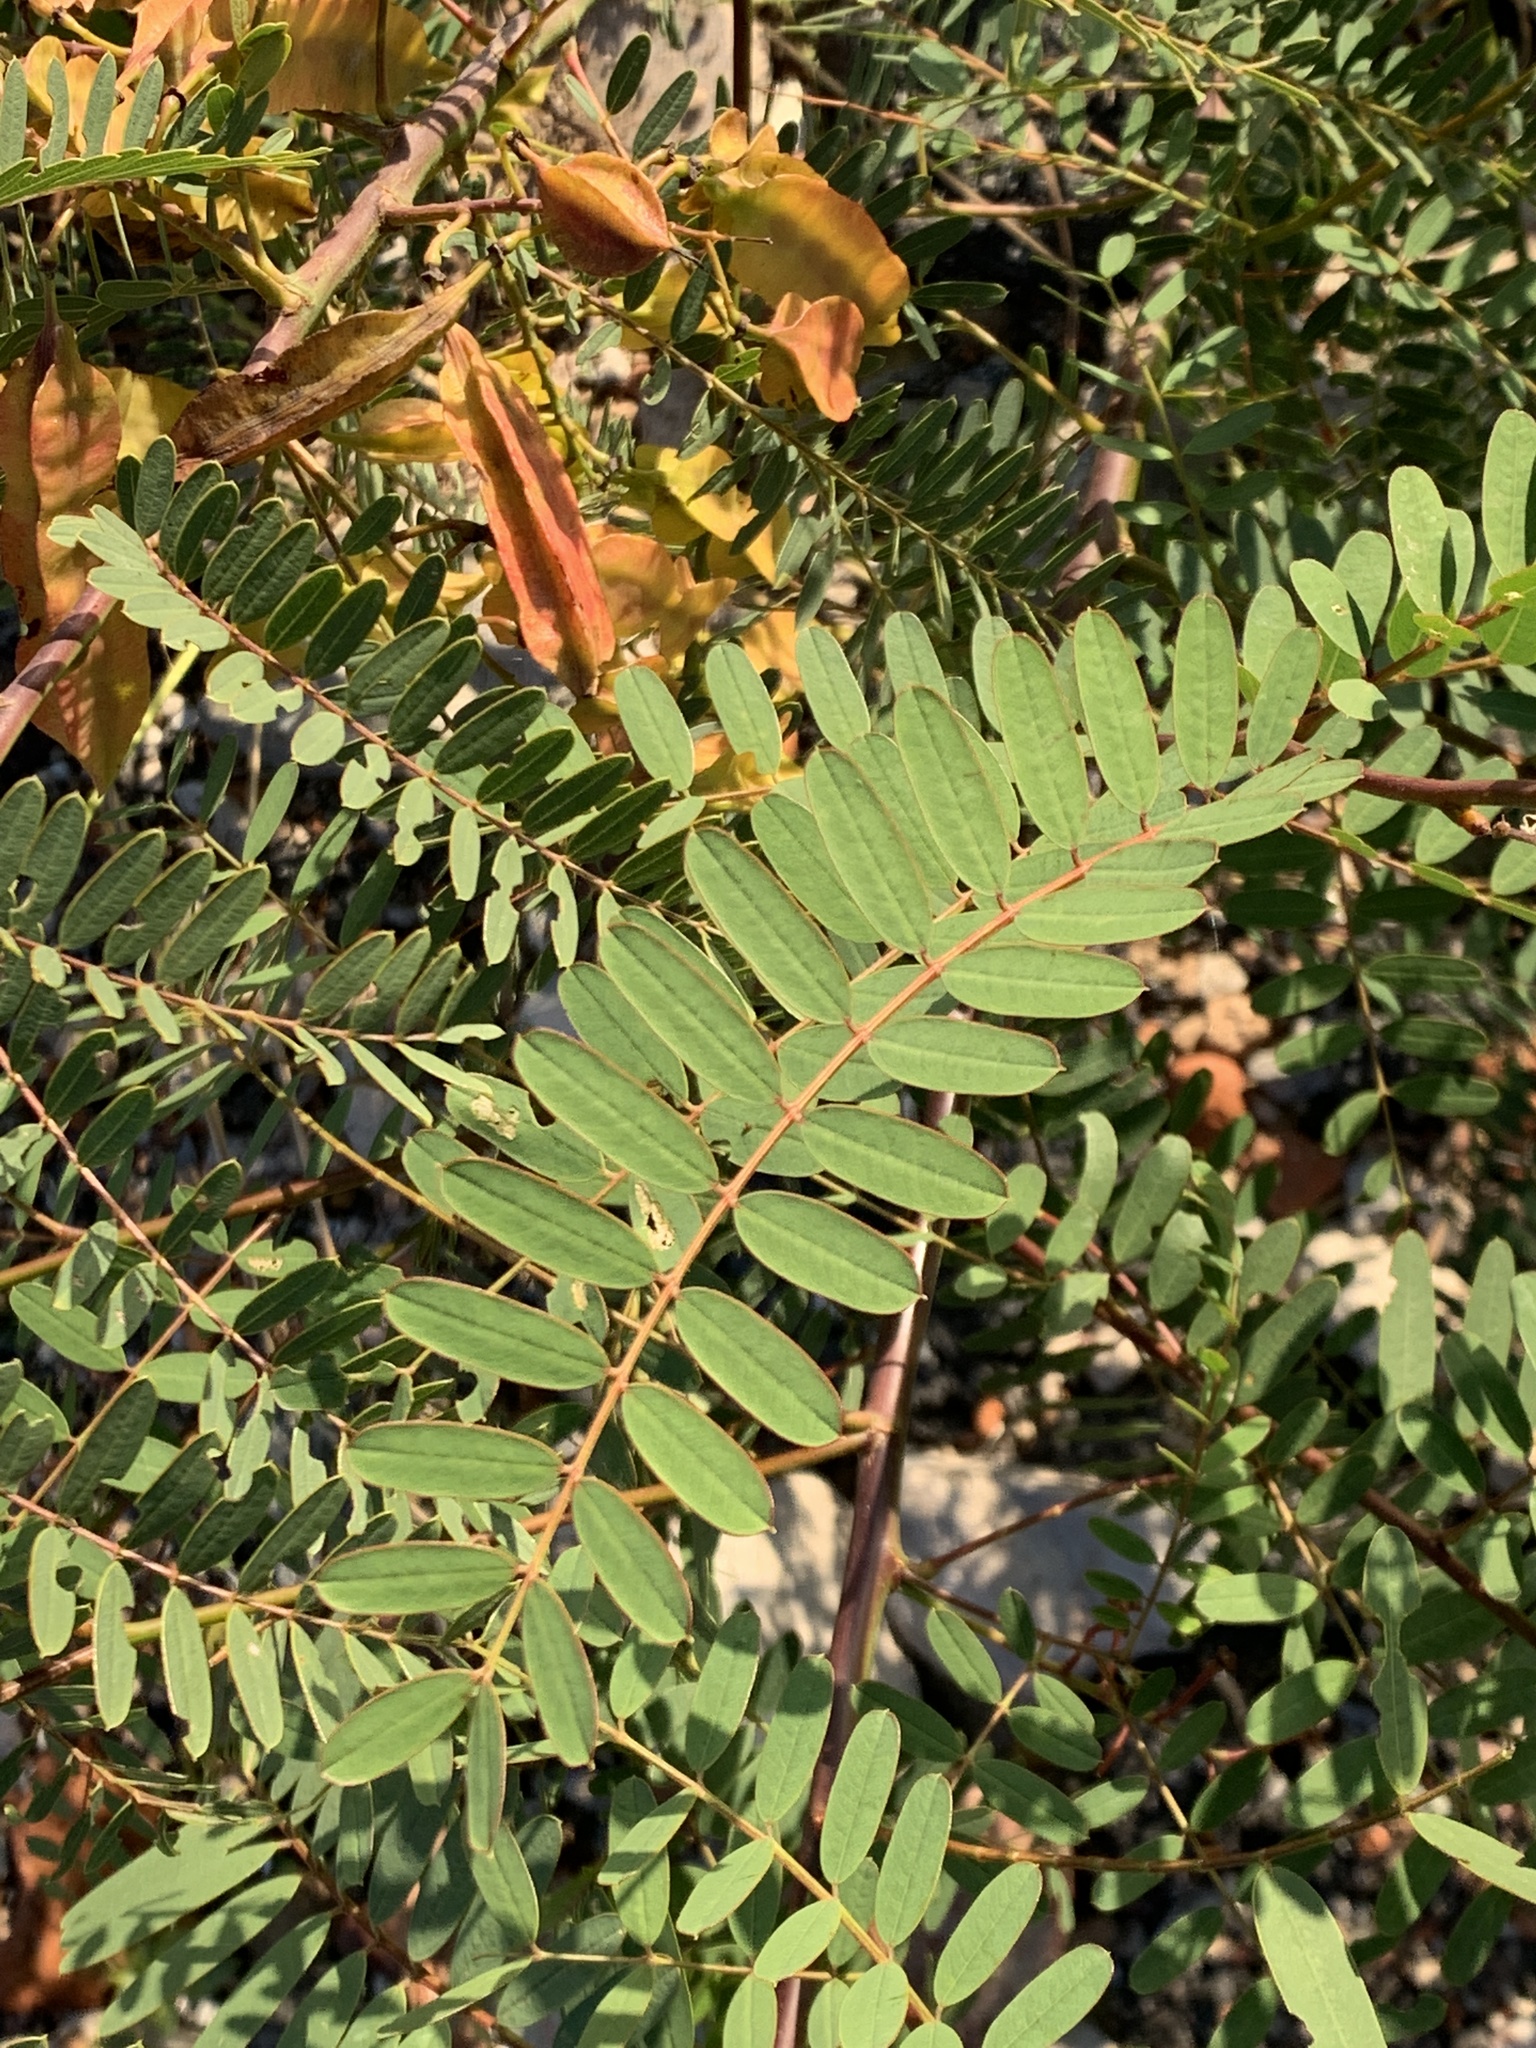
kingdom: Plantae
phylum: Tracheophyta
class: Magnoliopsida
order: Fabales
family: Fabaceae
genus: Sesbania
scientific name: Sesbania punicea
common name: Rattlebox
